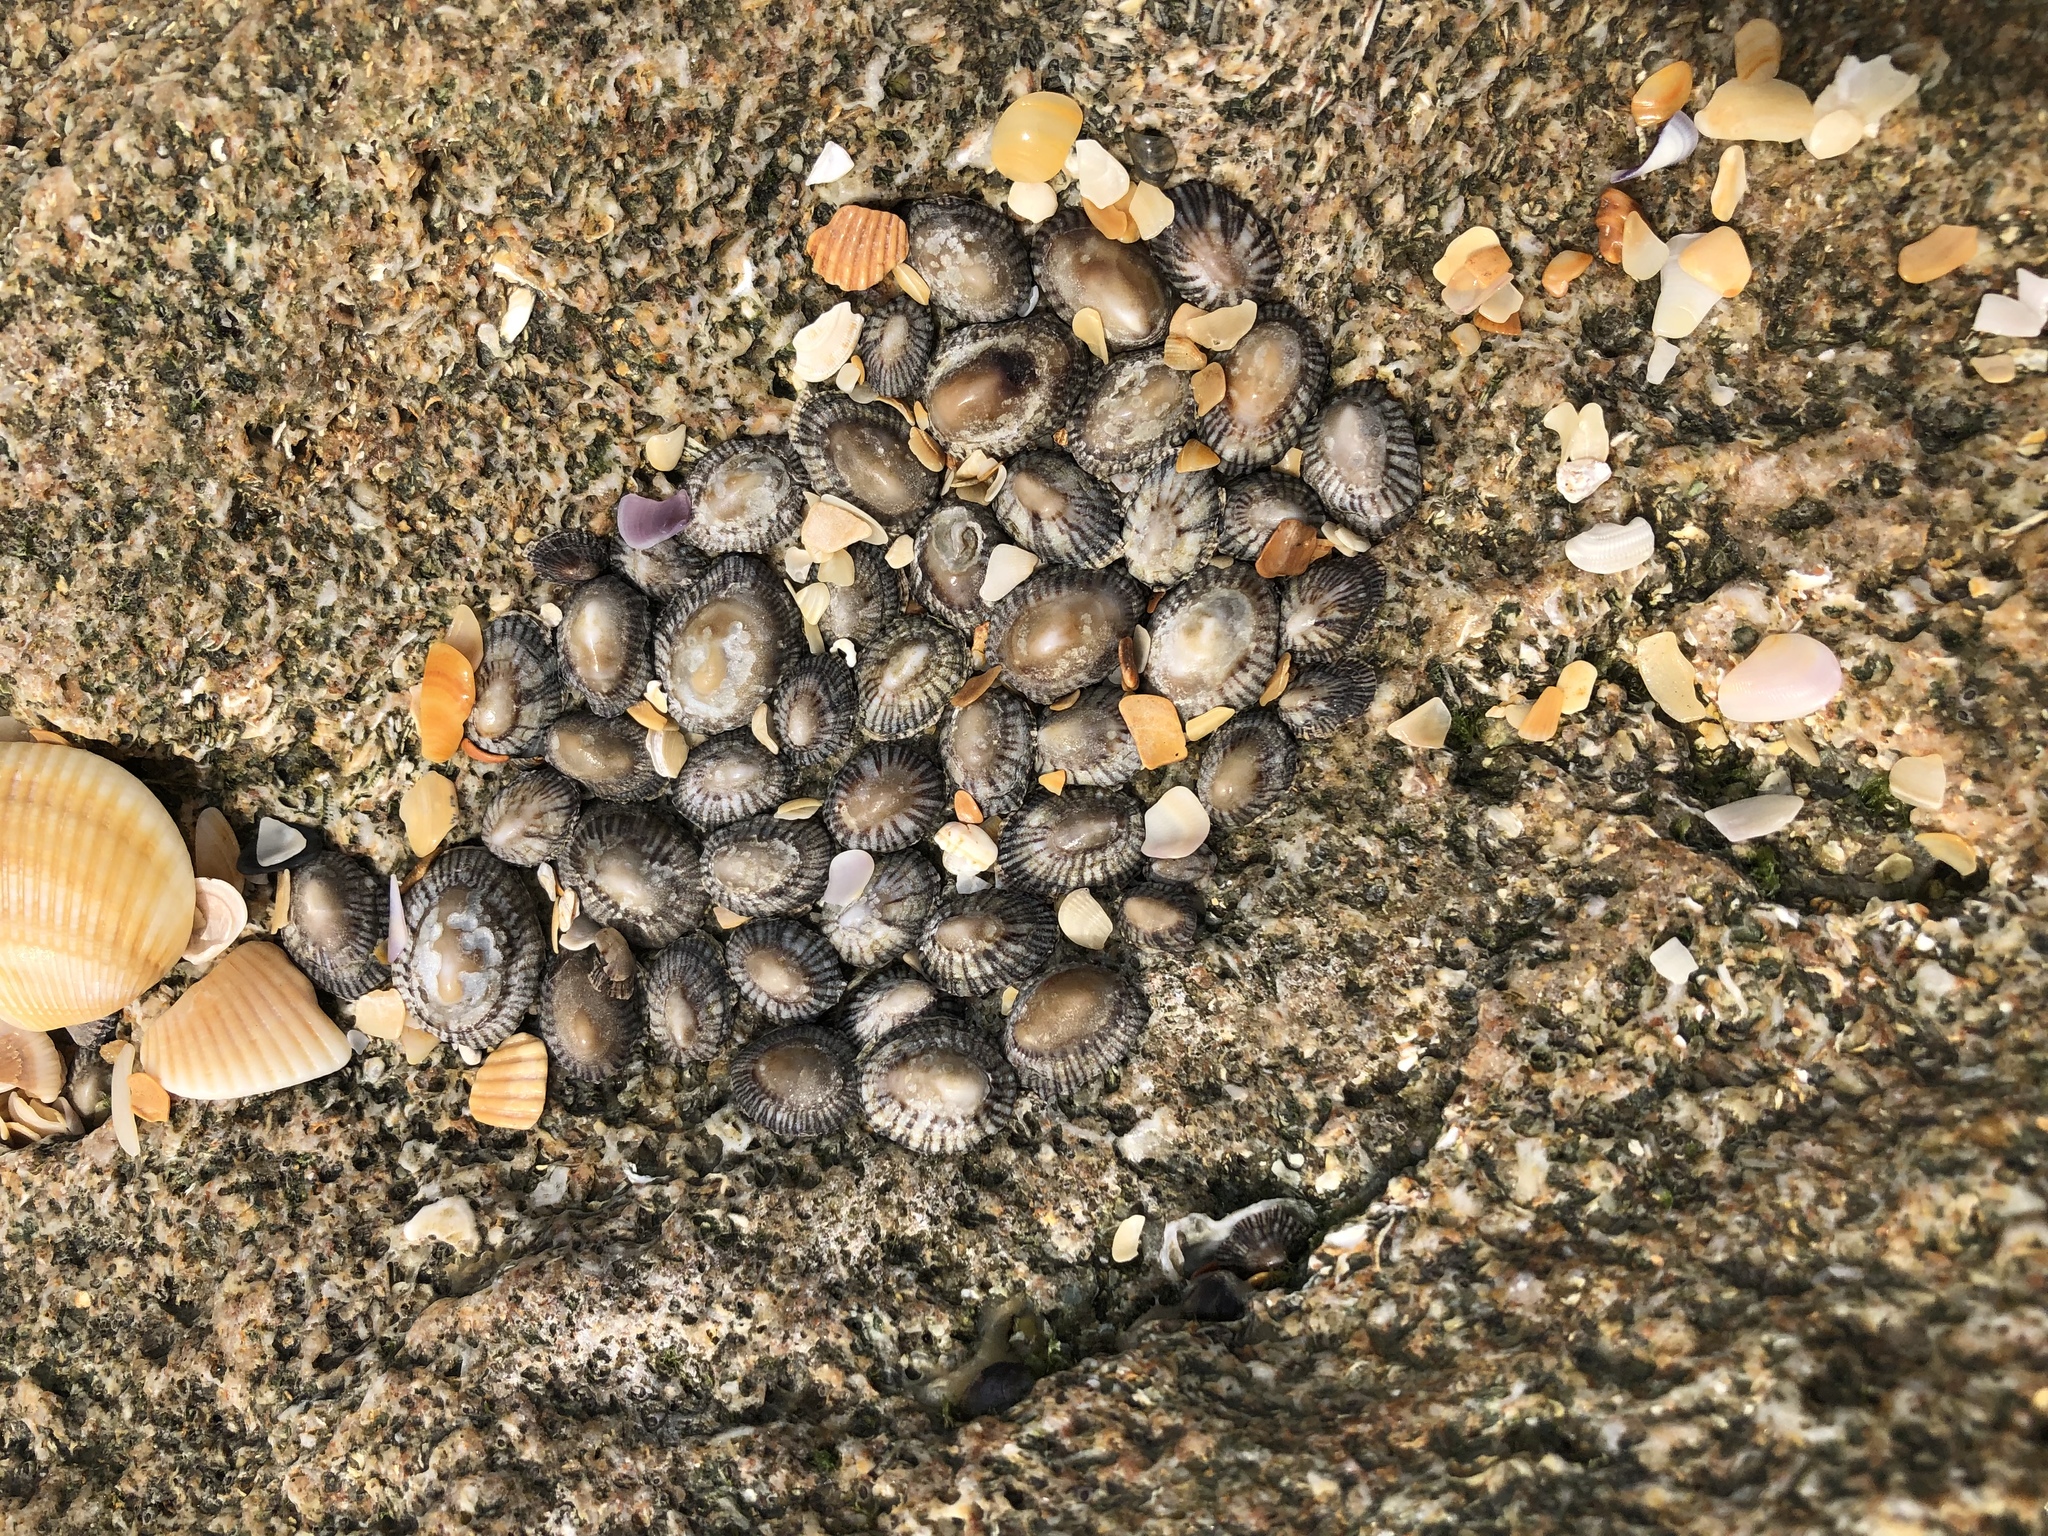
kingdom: Animalia
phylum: Mollusca
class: Gastropoda
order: Siphonariida
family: Siphonariidae
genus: Siphonaria
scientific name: Siphonaria naufragum
